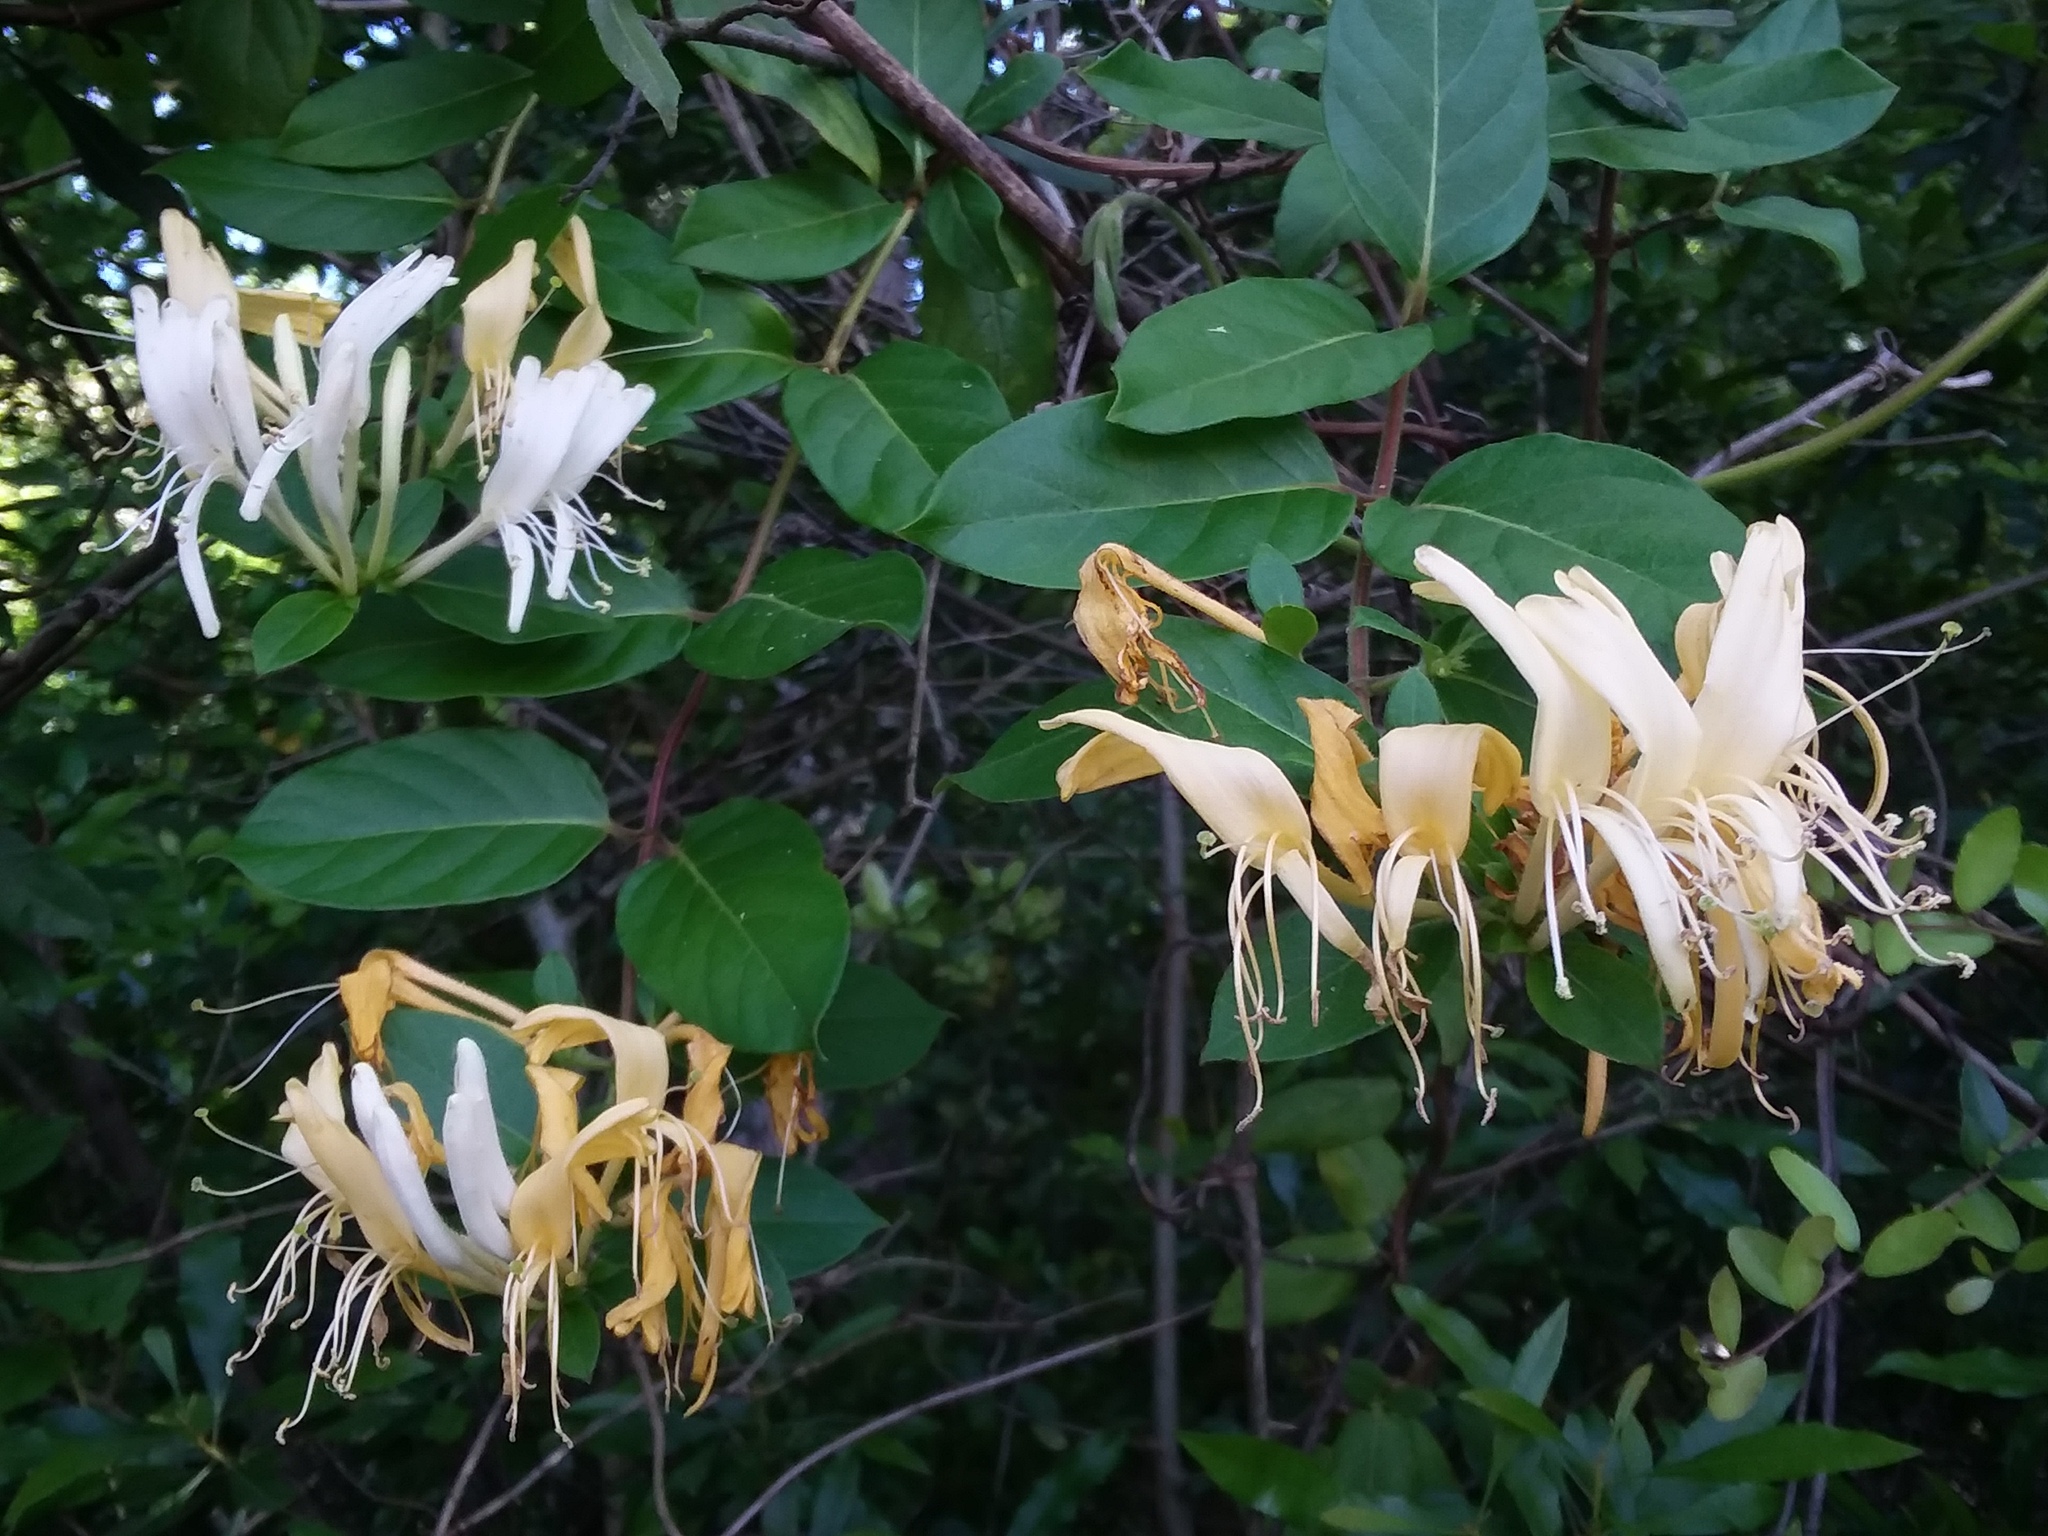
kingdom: Plantae
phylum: Tracheophyta
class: Magnoliopsida
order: Dipsacales
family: Caprifoliaceae
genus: Lonicera
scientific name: Lonicera japonica
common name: Japanese honeysuckle
